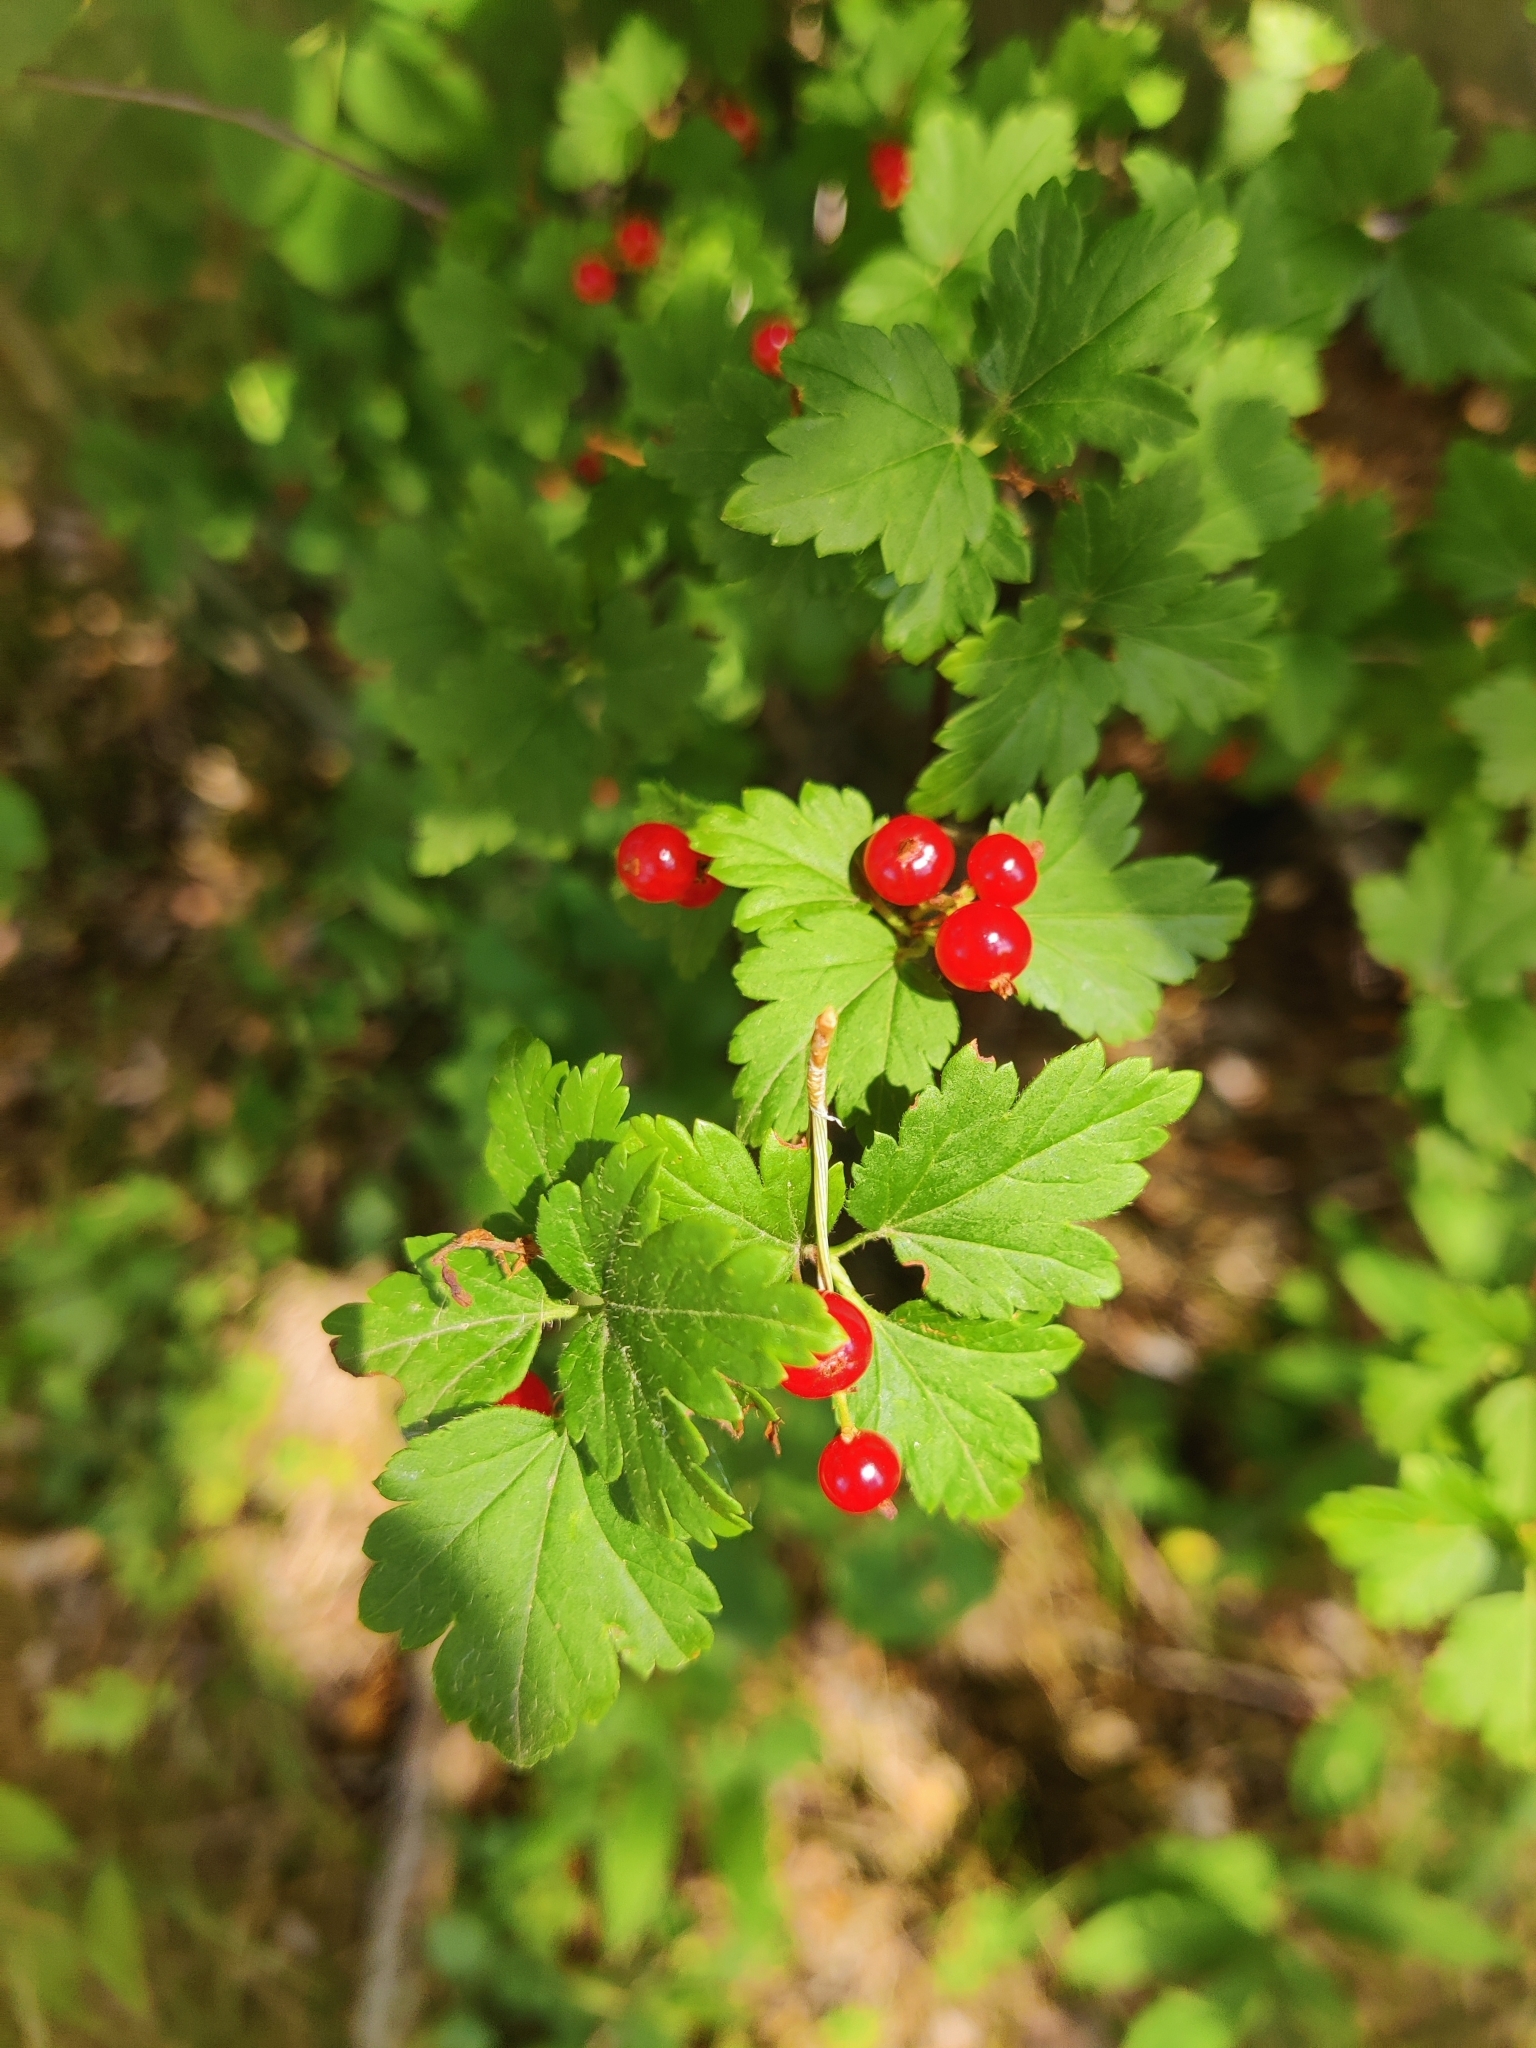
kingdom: Plantae
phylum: Tracheophyta
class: Magnoliopsida
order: Saxifragales
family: Grossulariaceae
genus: Ribes
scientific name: Ribes alpinum
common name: Alpine currant
